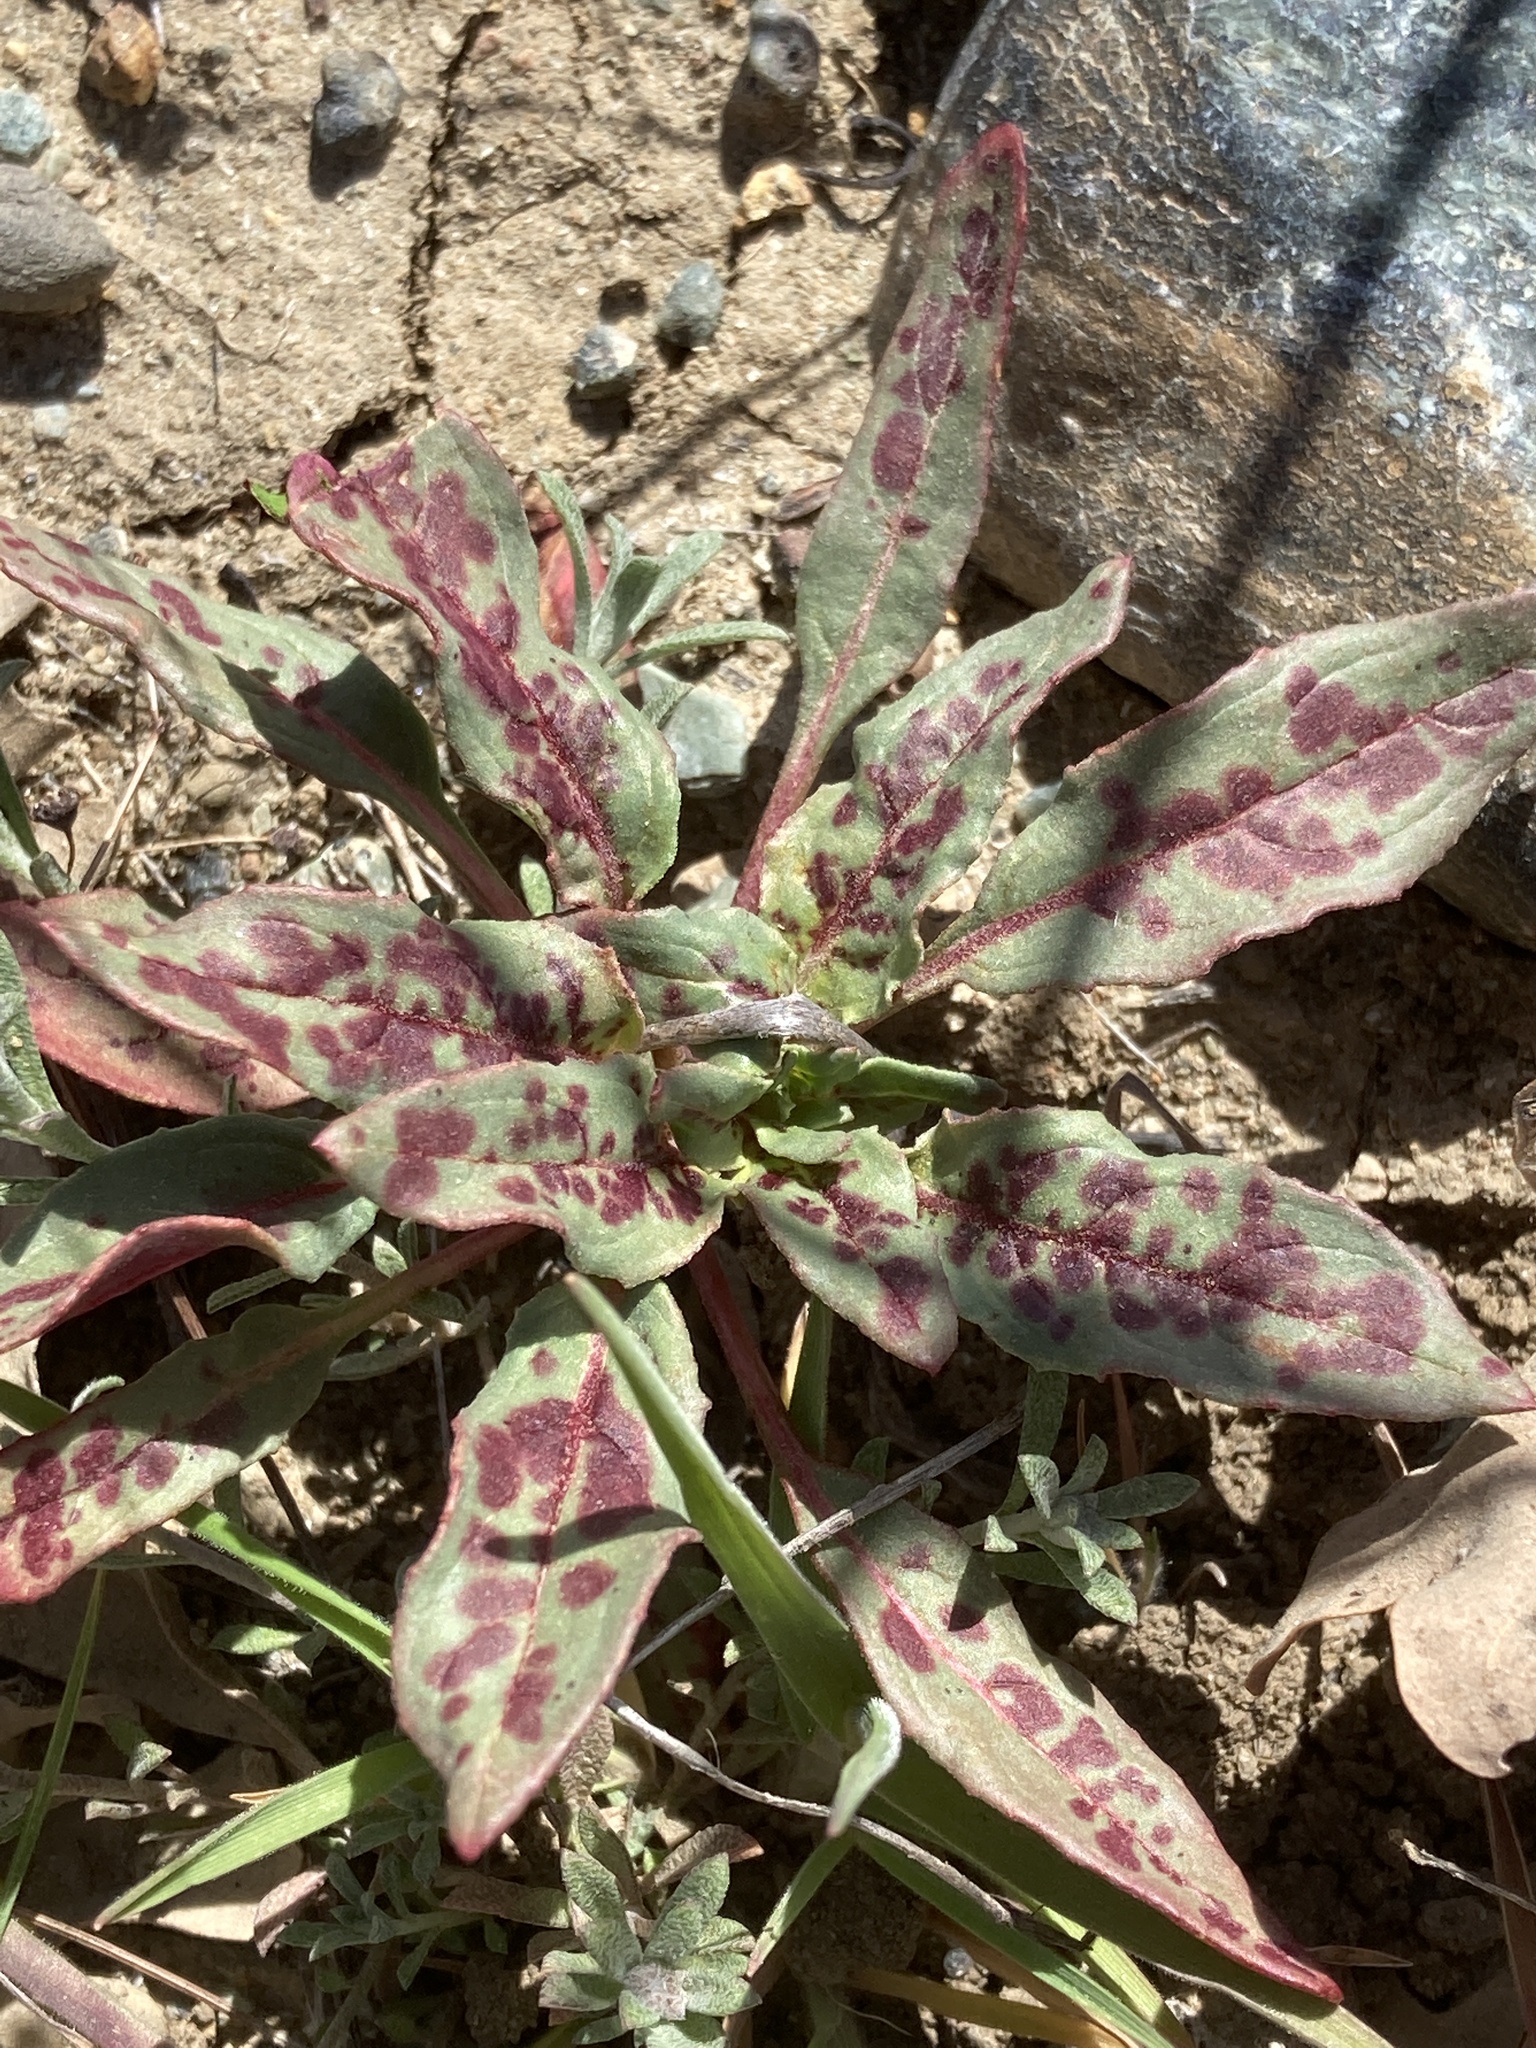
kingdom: Plantae
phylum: Tracheophyta
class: Magnoliopsida
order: Myrtales
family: Onagraceae
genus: Eremothera
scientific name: Eremothera boothii
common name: Booth's evening primrose
